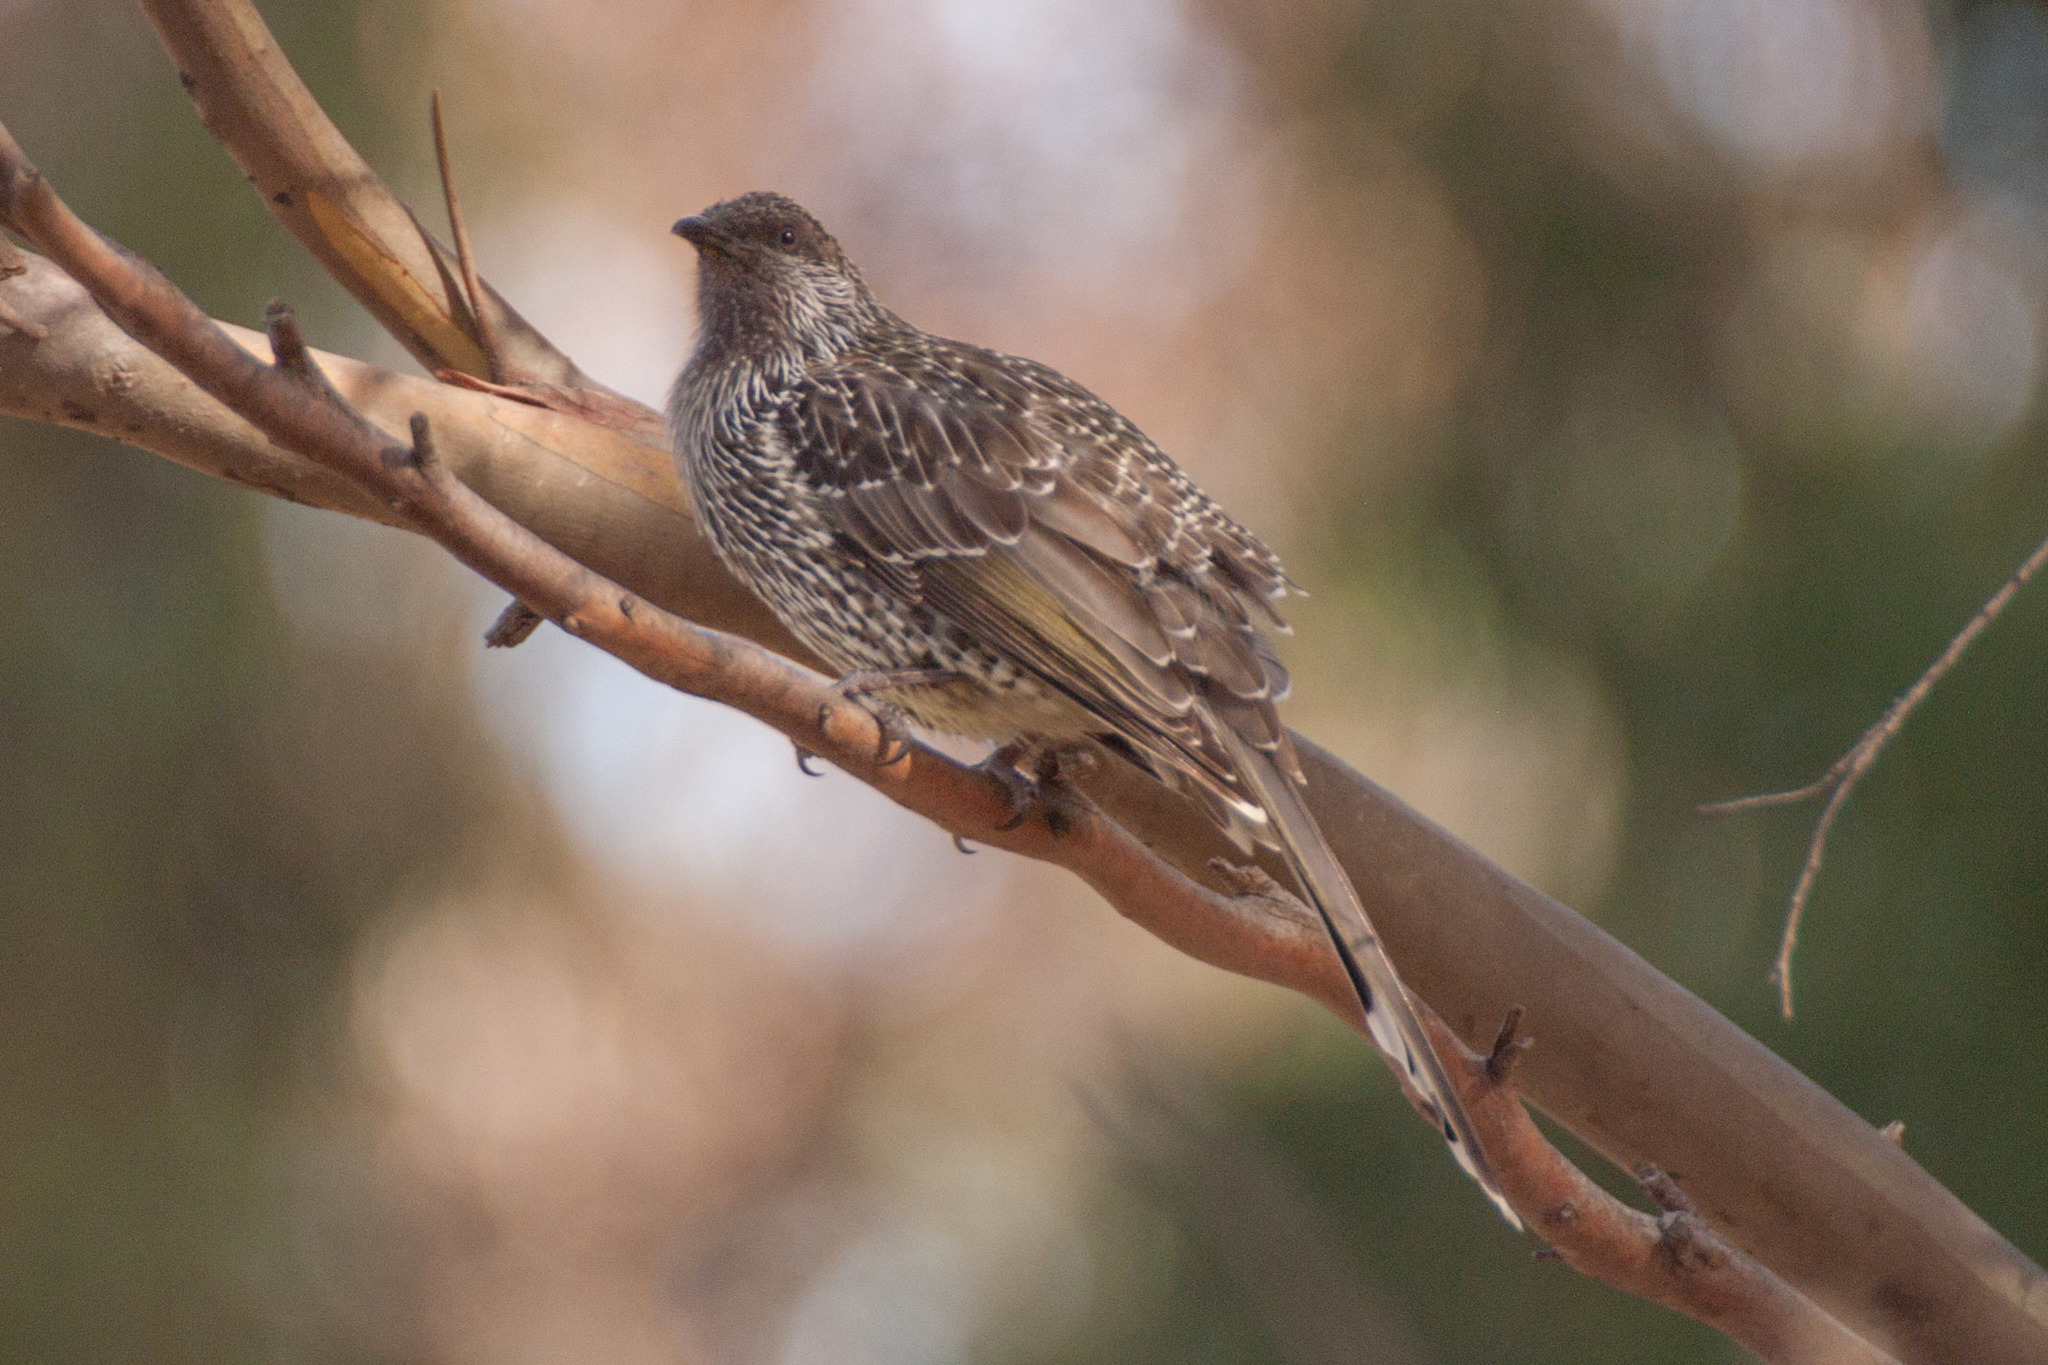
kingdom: Animalia
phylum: Chordata
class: Aves
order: Passeriformes
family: Meliphagidae
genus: Anthochaera
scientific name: Anthochaera chrysoptera
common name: Little wattlebird
